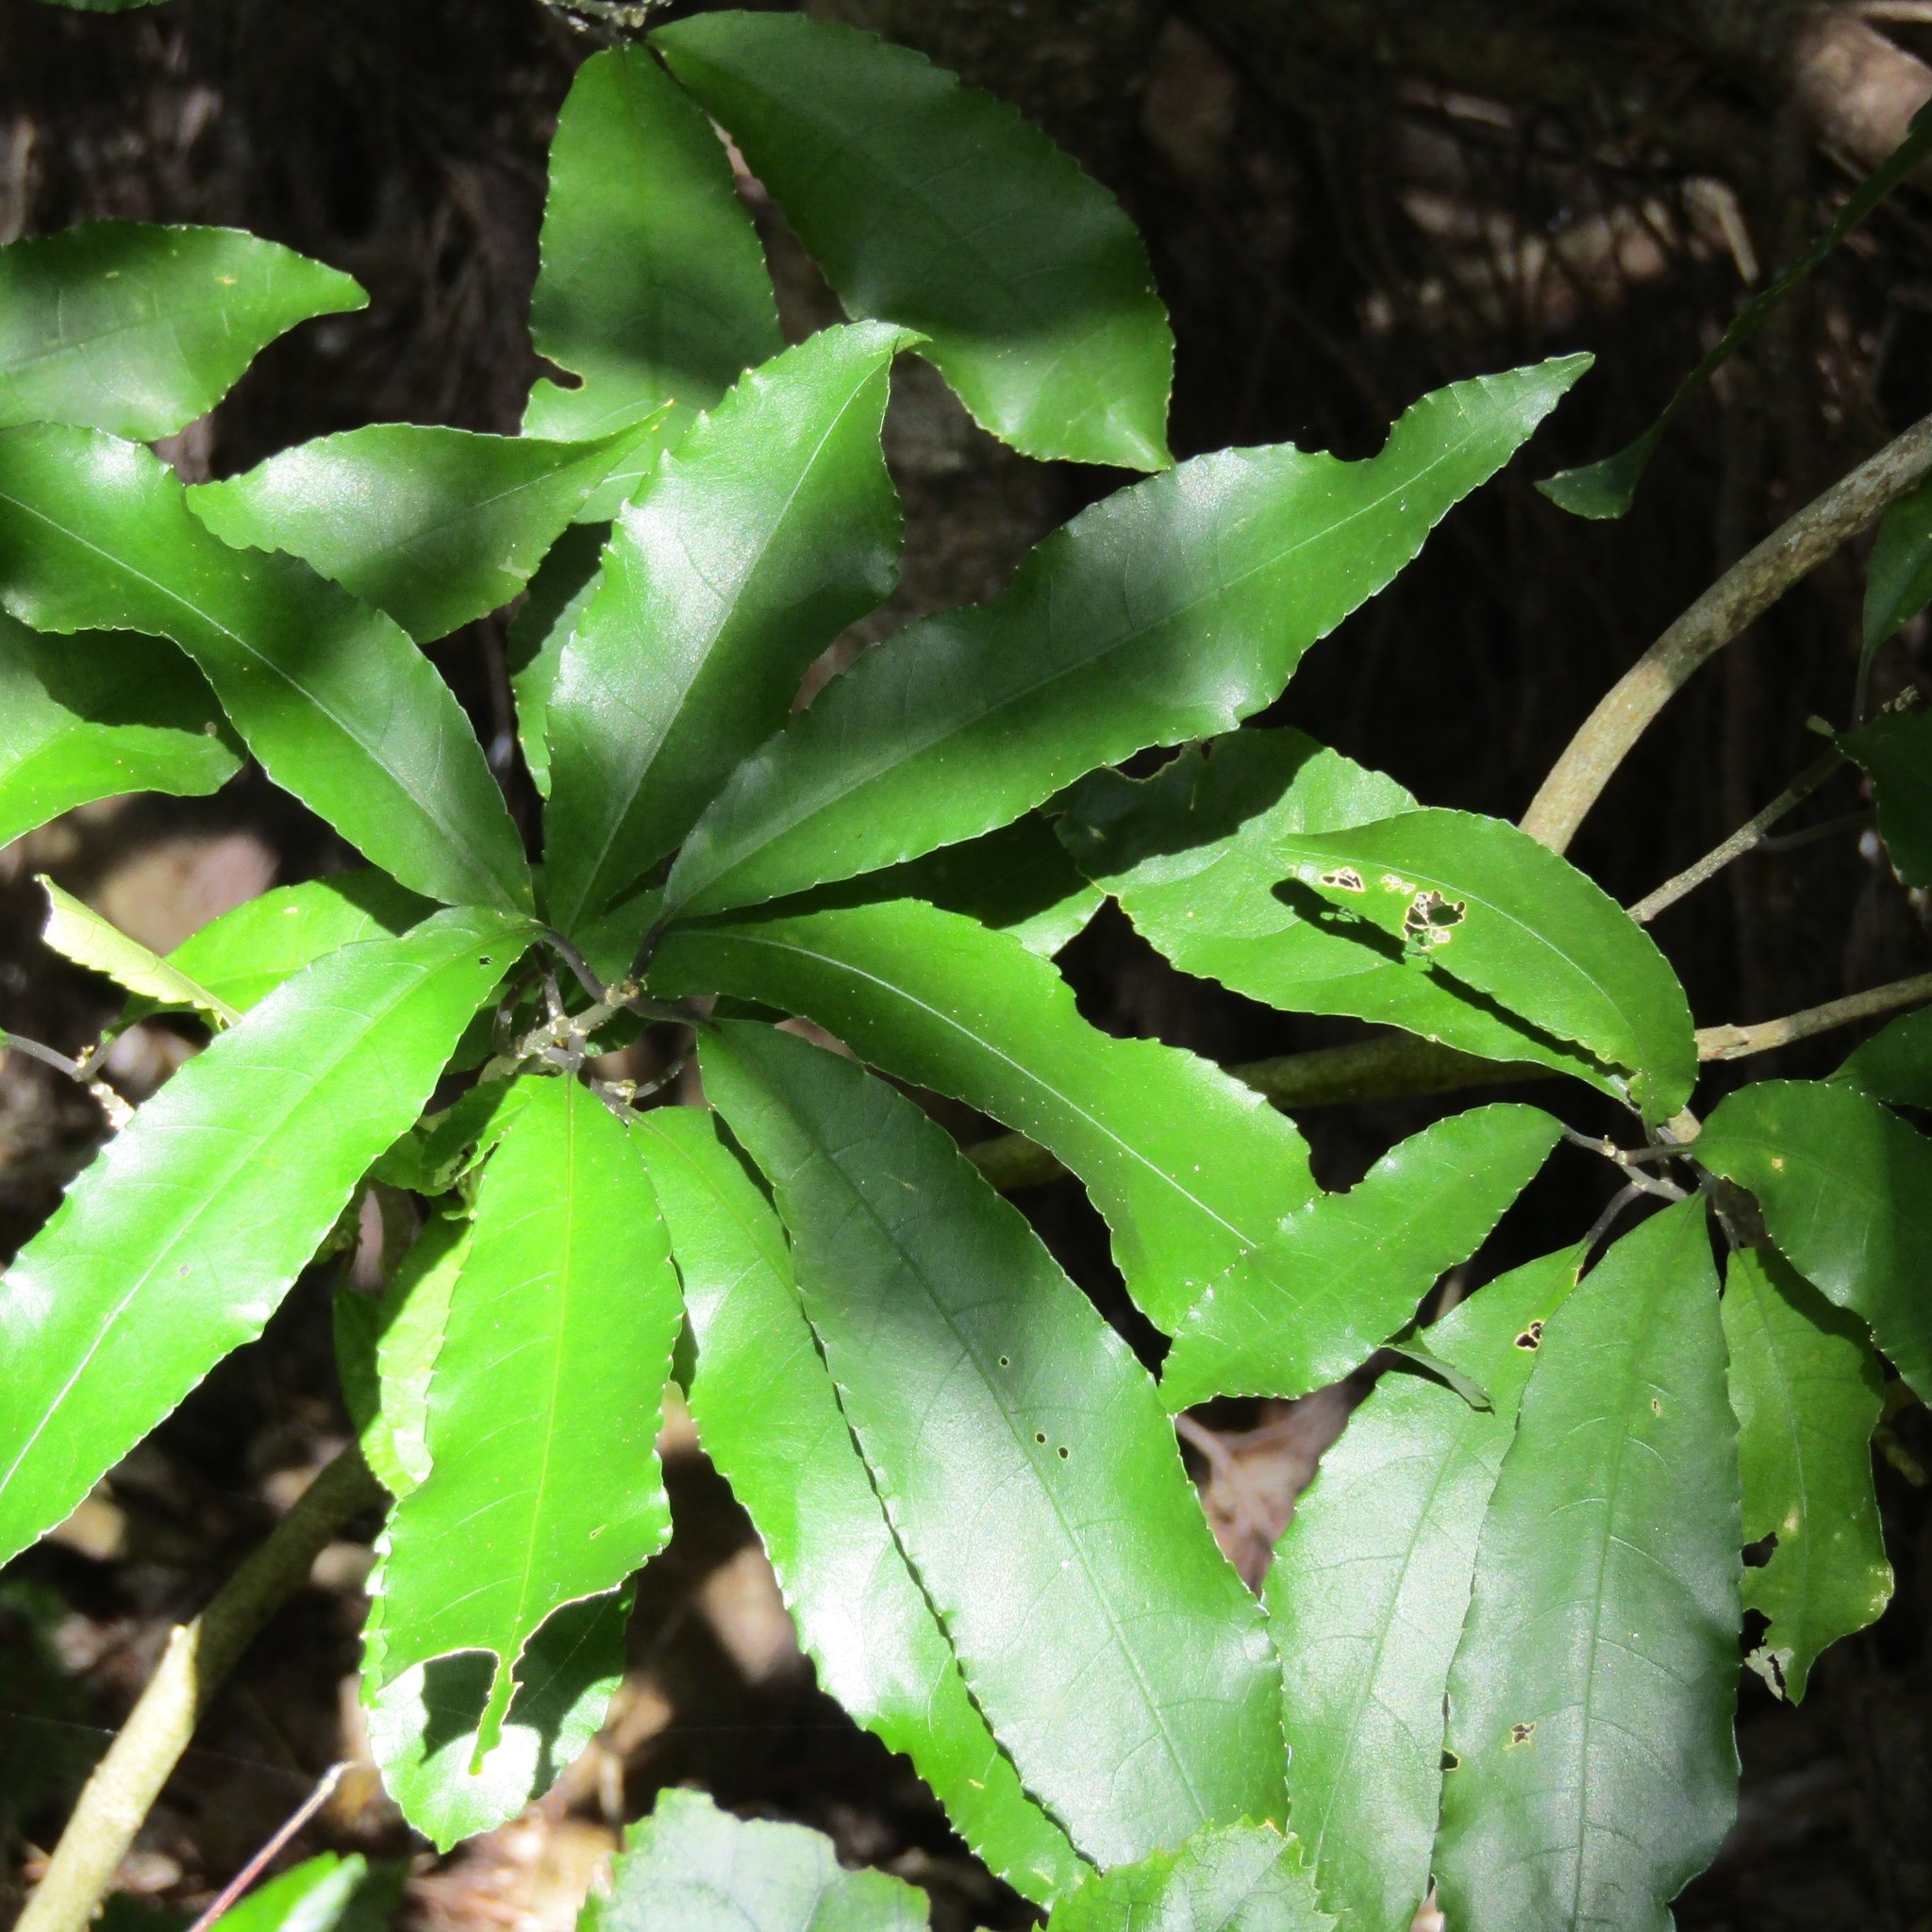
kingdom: Plantae
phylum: Tracheophyta
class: Magnoliopsida
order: Malpighiales
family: Violaceae
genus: Melicytus
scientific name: Melicytus ramiflorus
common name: Mahoe
